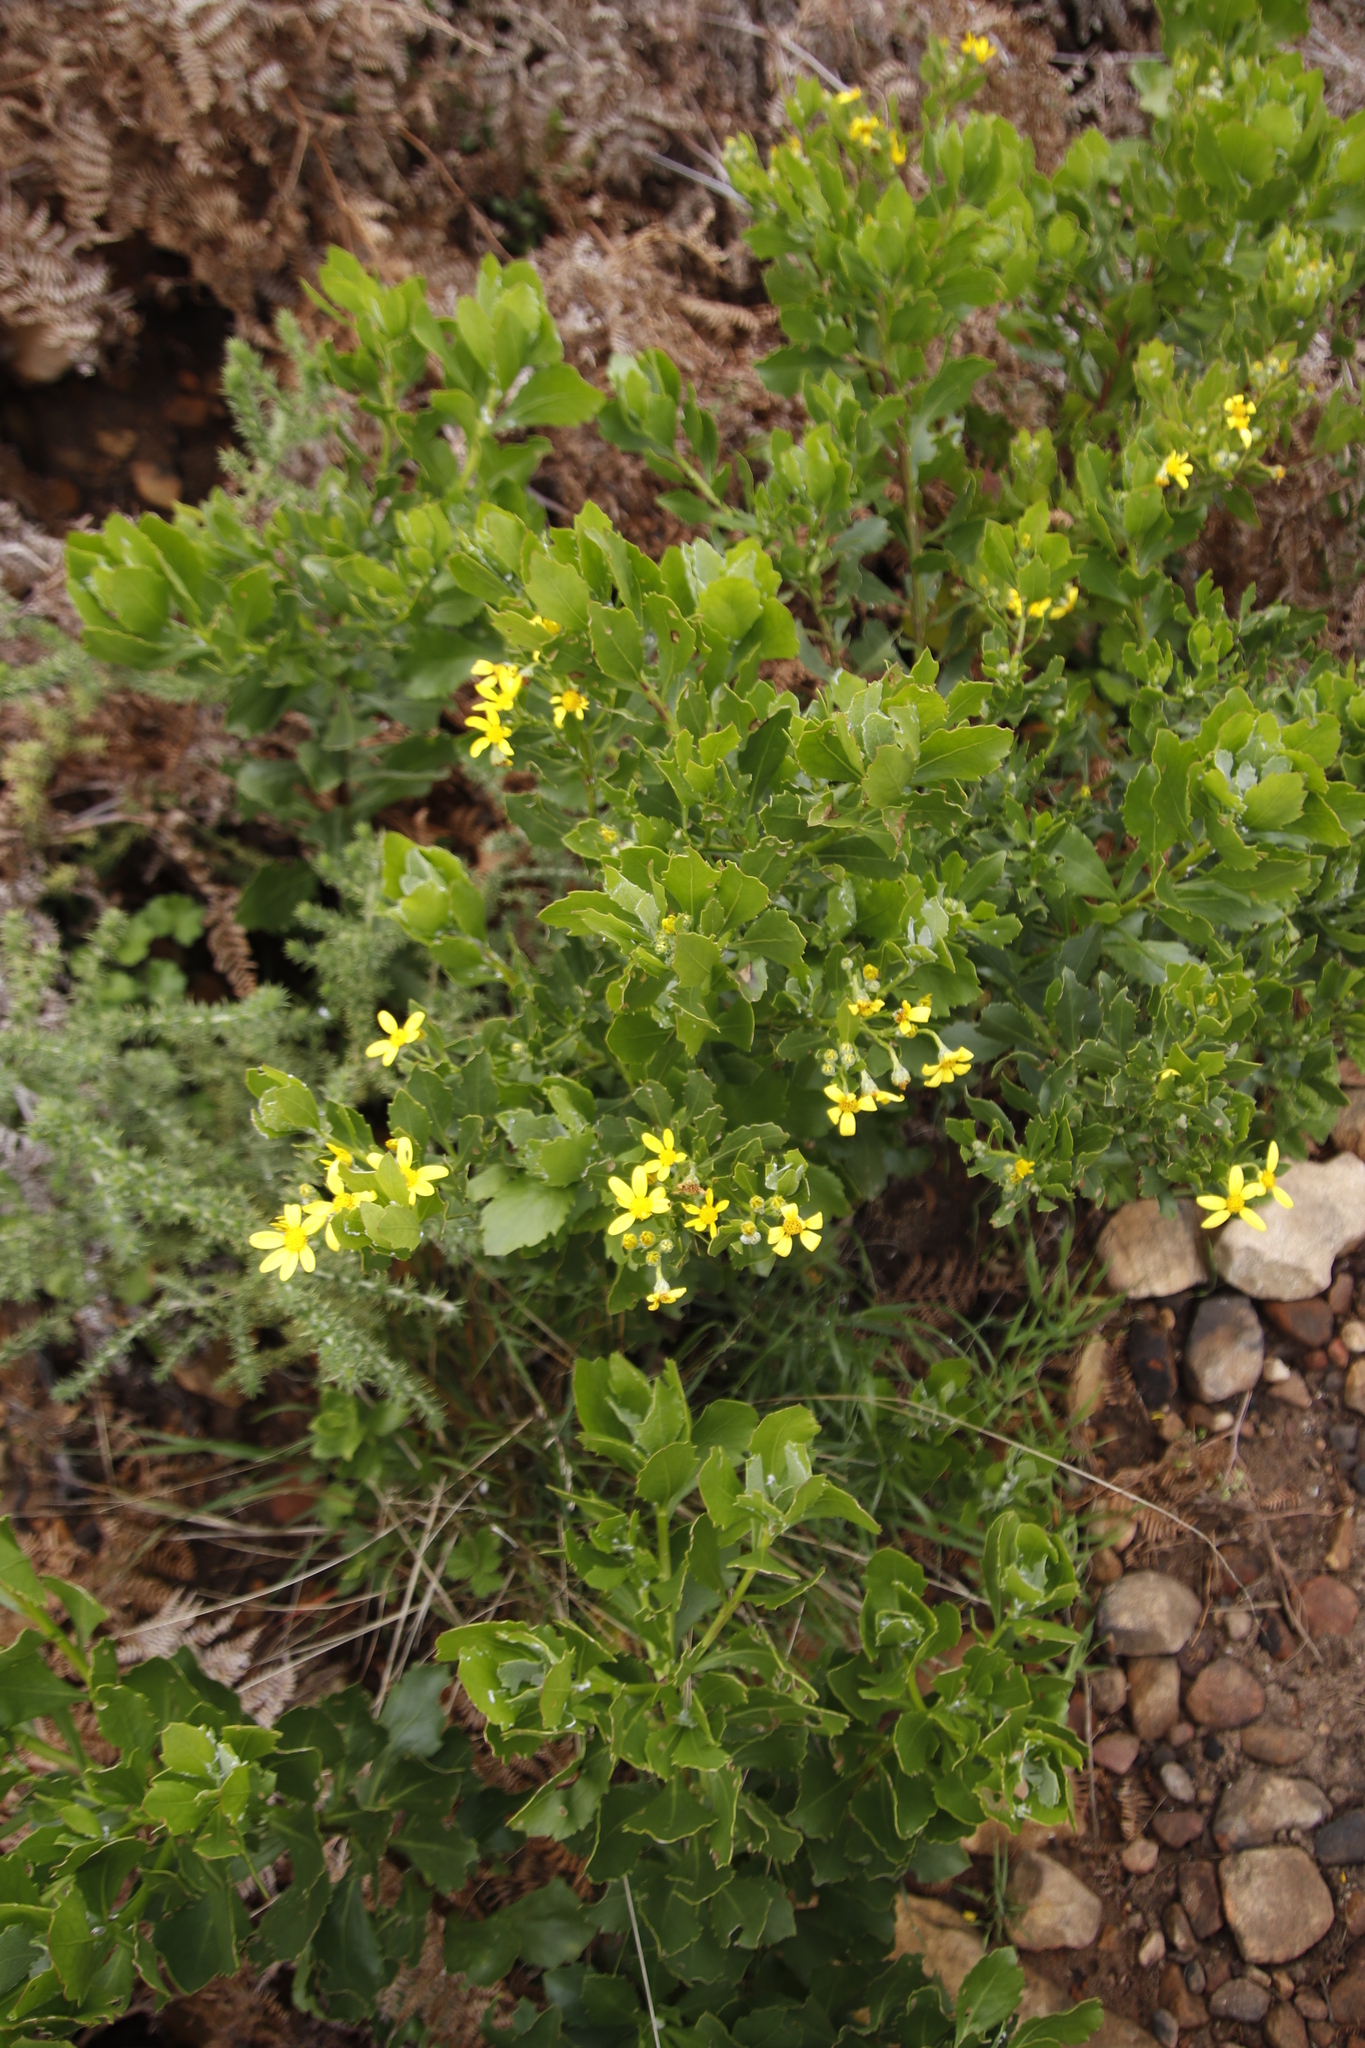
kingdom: Plantae
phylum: Tracheophyta
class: Magnoliopsida
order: Asterales
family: Asteraceae
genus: Osteospermum
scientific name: Osteospermum moniliferum
